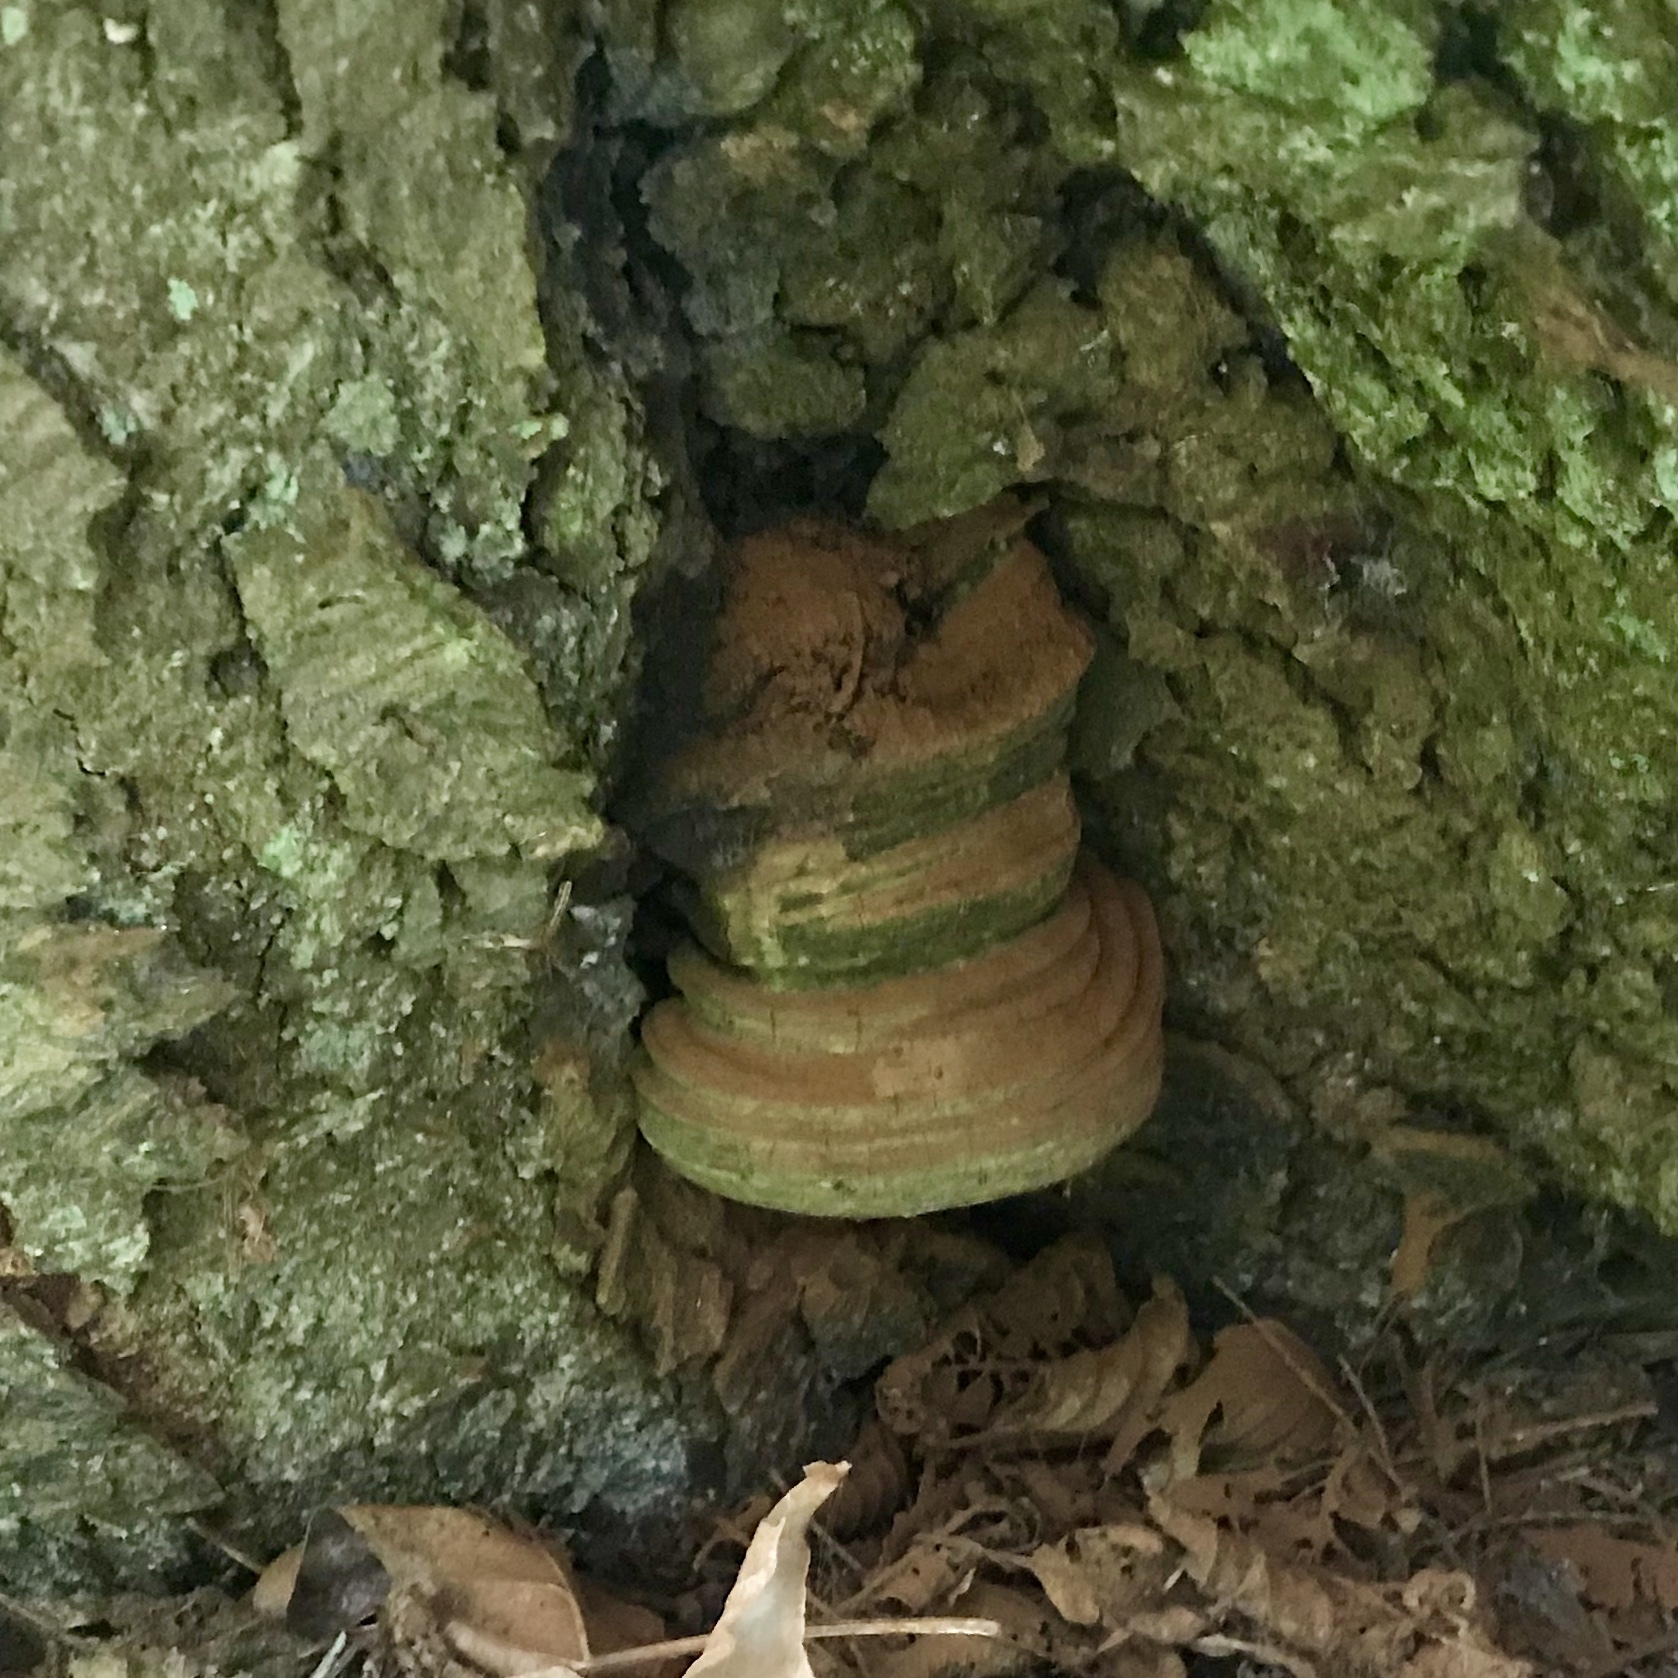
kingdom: Fungi
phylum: Basidiomycota
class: Agaricomycetes
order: Polyporales
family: Polyporaceae
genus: Fomes
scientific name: Fomes fomentarius
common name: Hoof fungus
